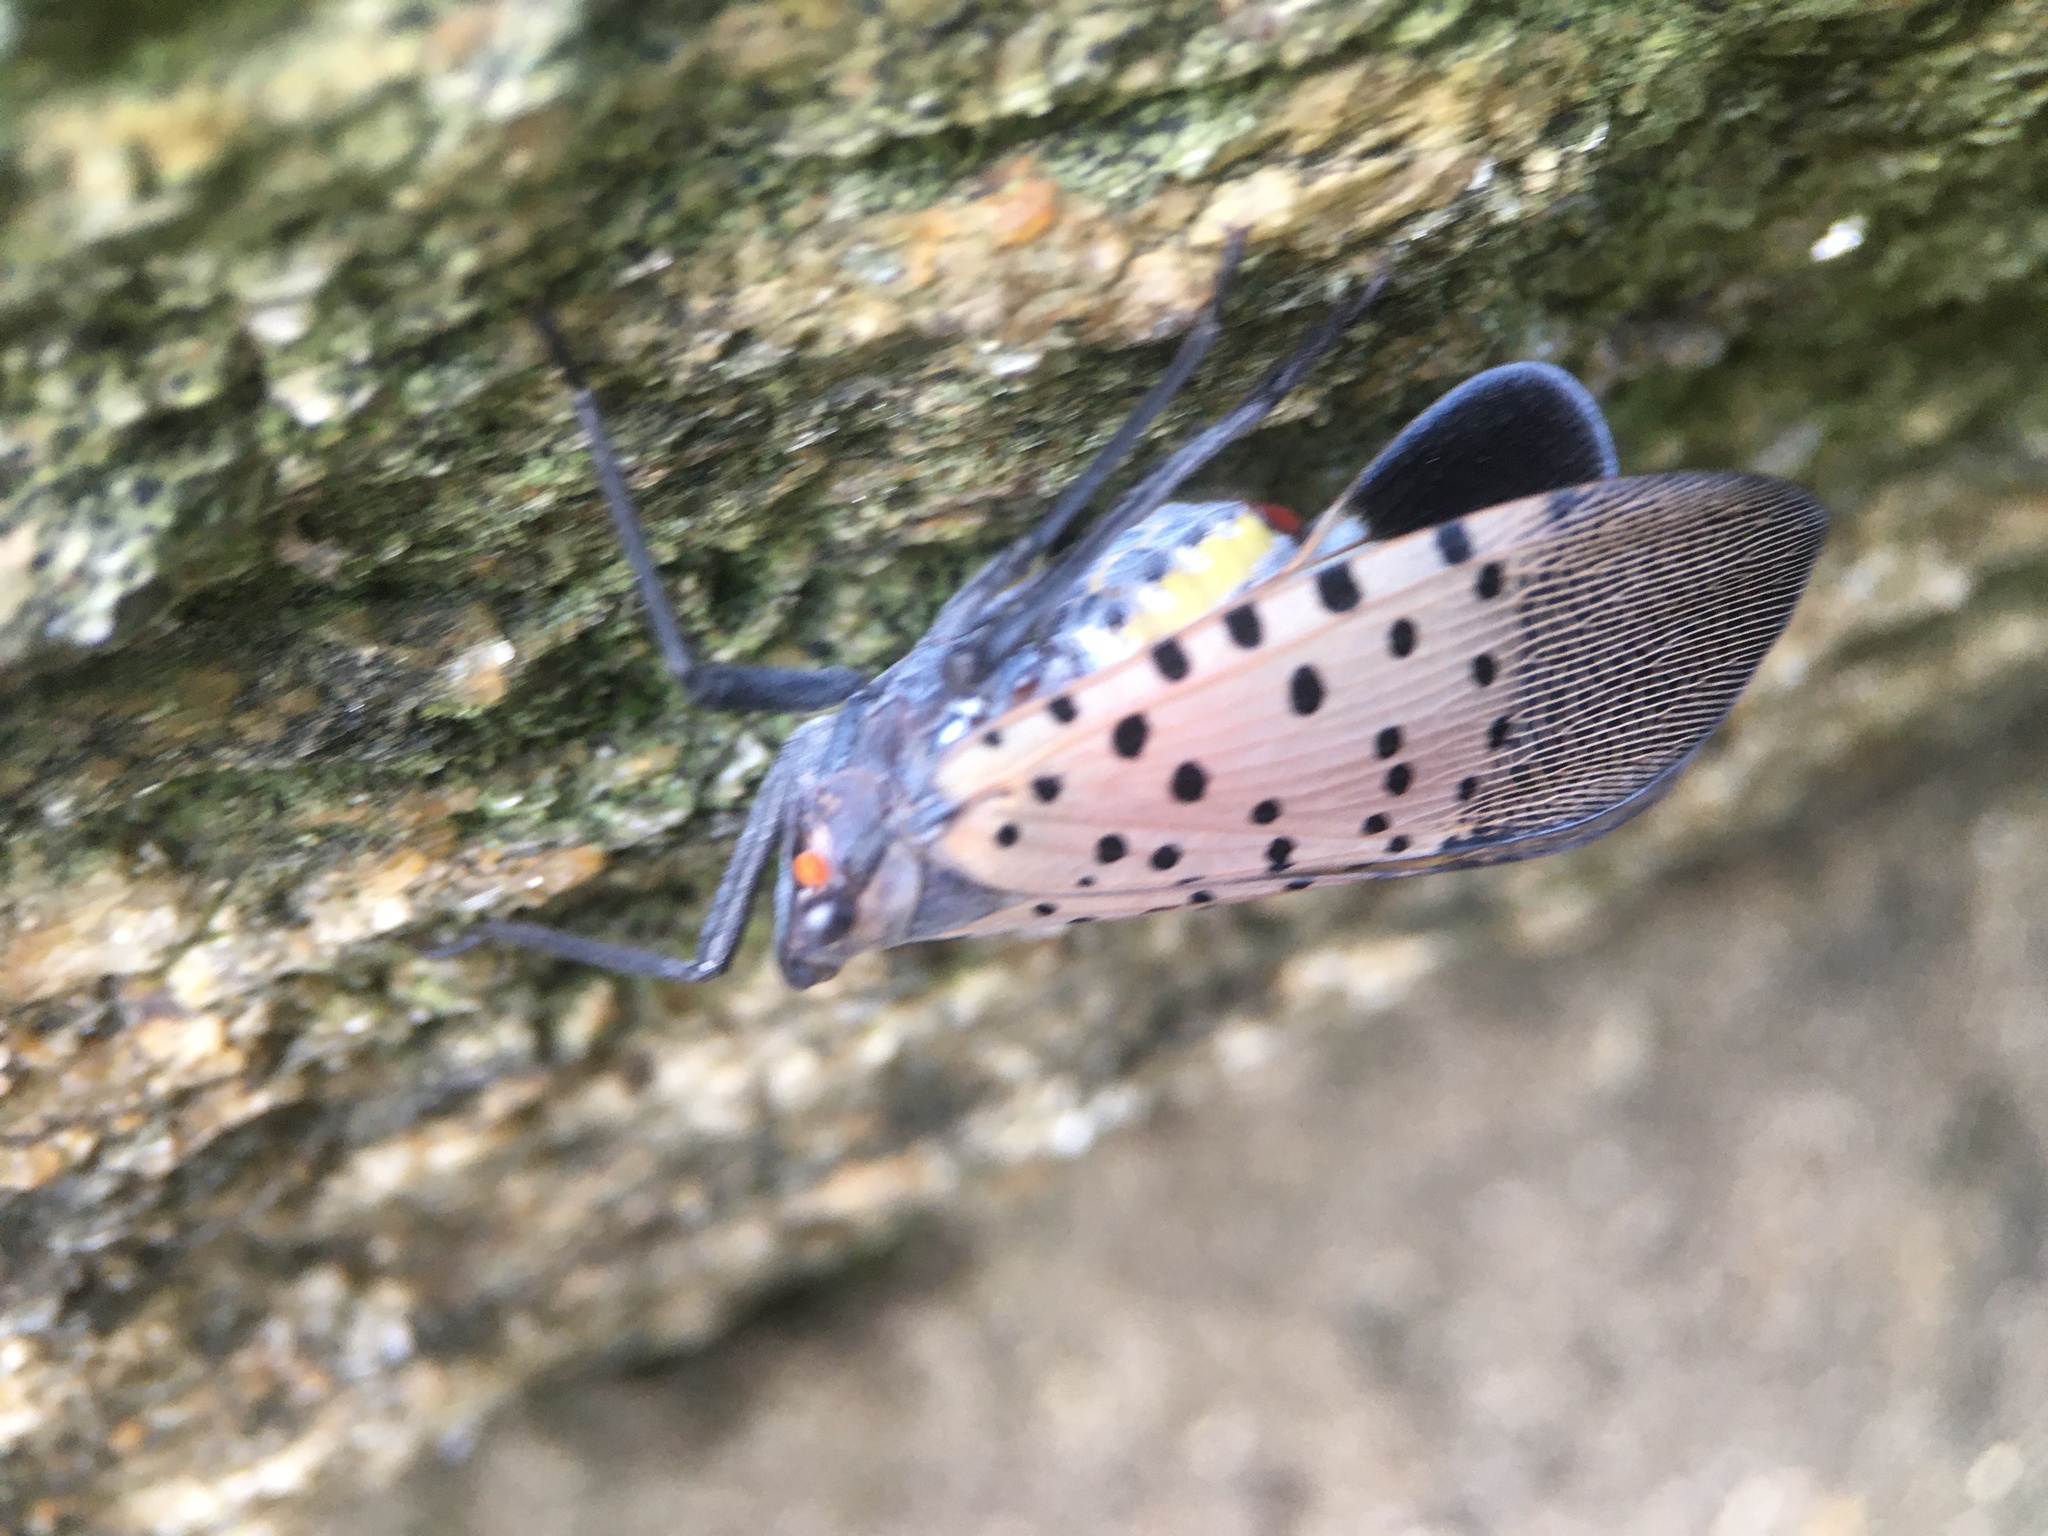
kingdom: Animalia
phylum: Arthropoda
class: Insecta
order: Hemiptera
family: Fulgoridae
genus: Lycorma
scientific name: Lycorma delicatula
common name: Spotted lanternfly
